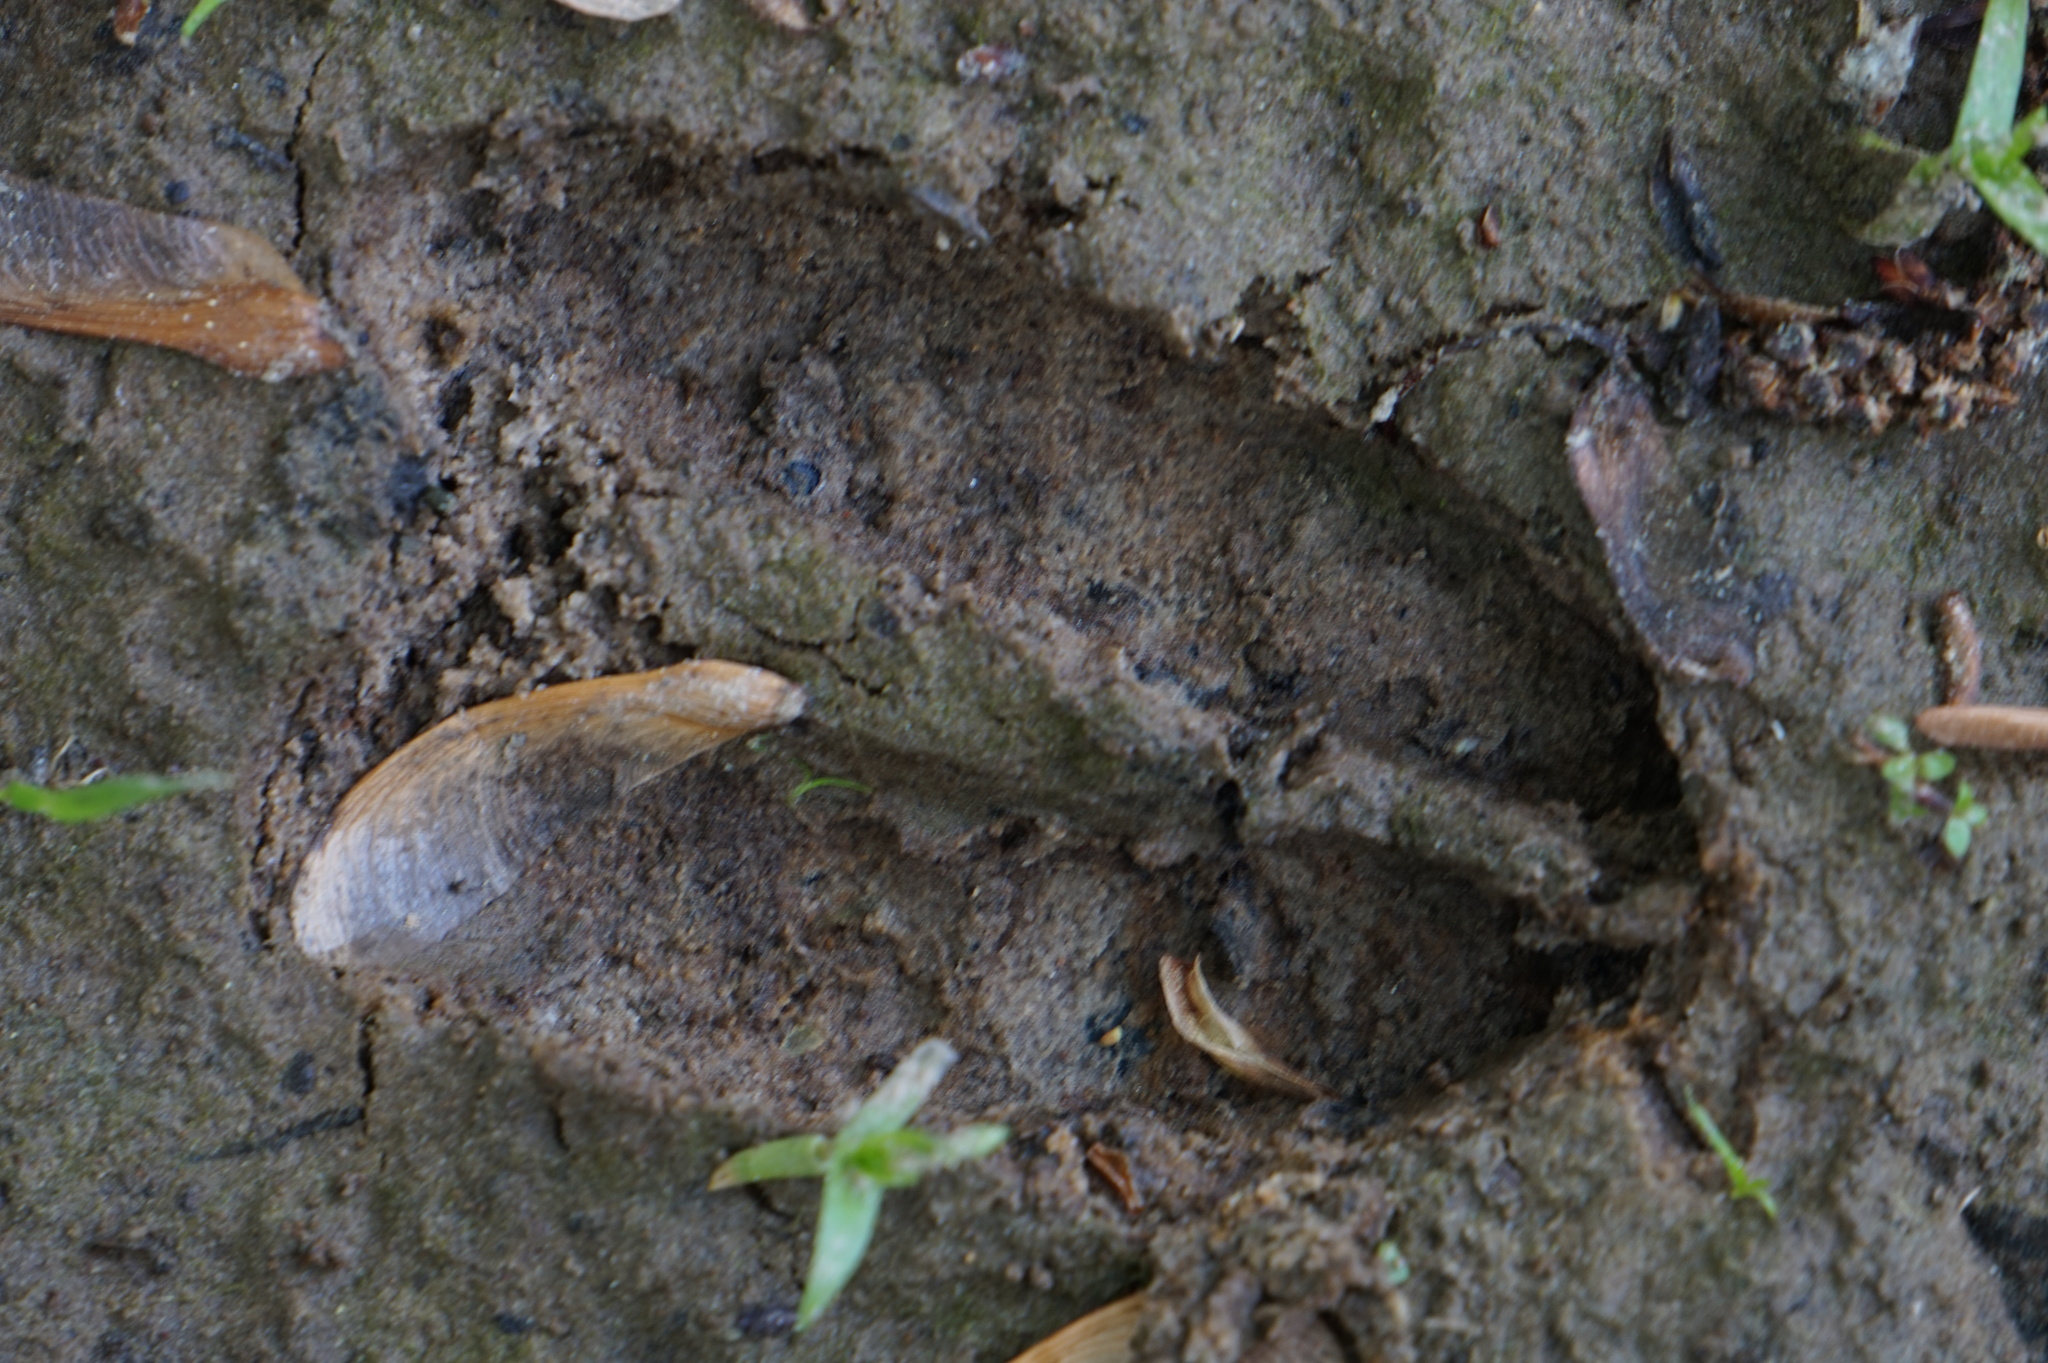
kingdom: Animalia
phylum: Chordata
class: Mammalia
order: Artiodactyla
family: Cervidae
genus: Odocoileus
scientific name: Odocoileus virginianus
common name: White-tailed deer
